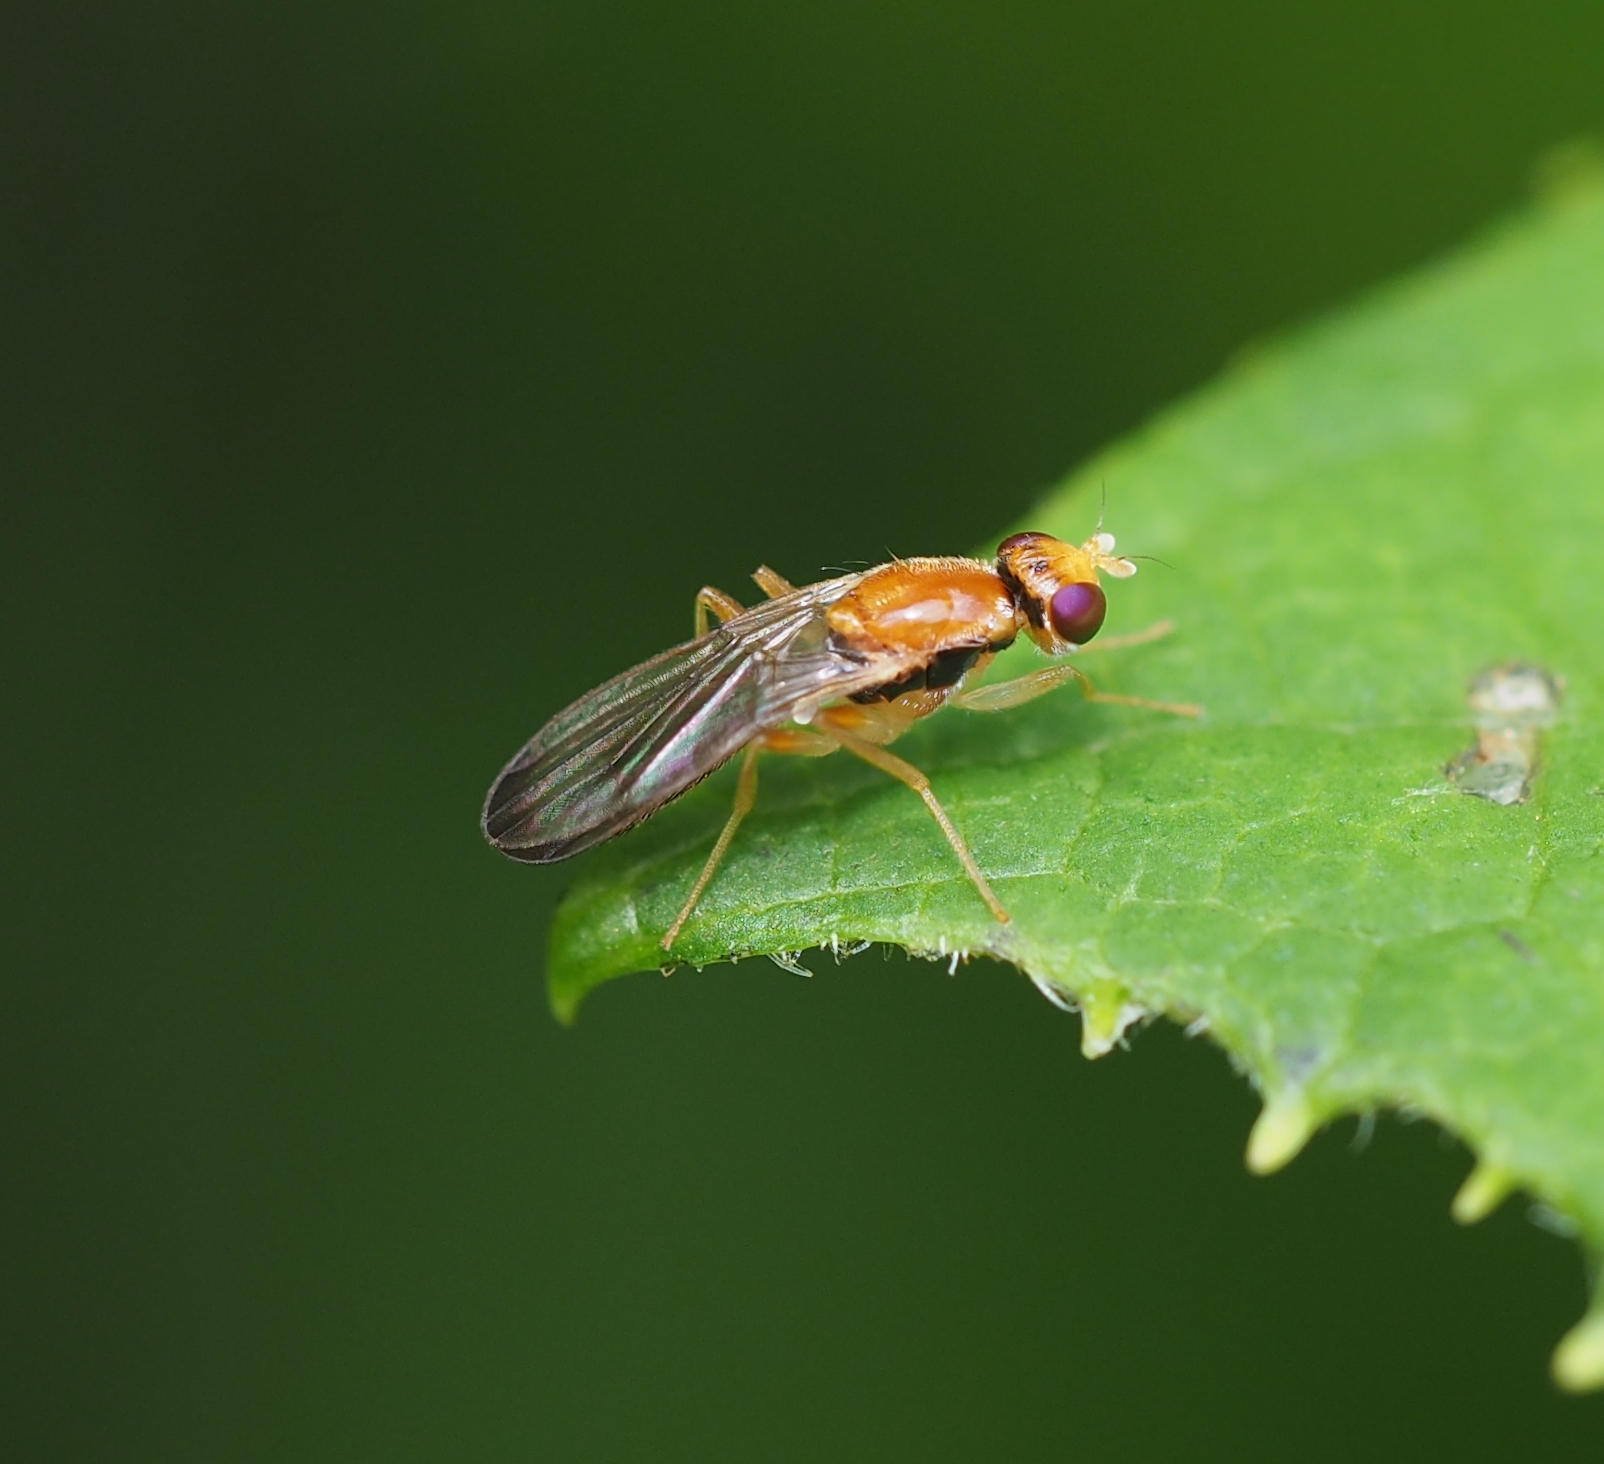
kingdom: Animalia
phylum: Arthropoda
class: Insecta
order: Diptera
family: Psilidae
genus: Chyliza
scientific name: Chyliza vittata
